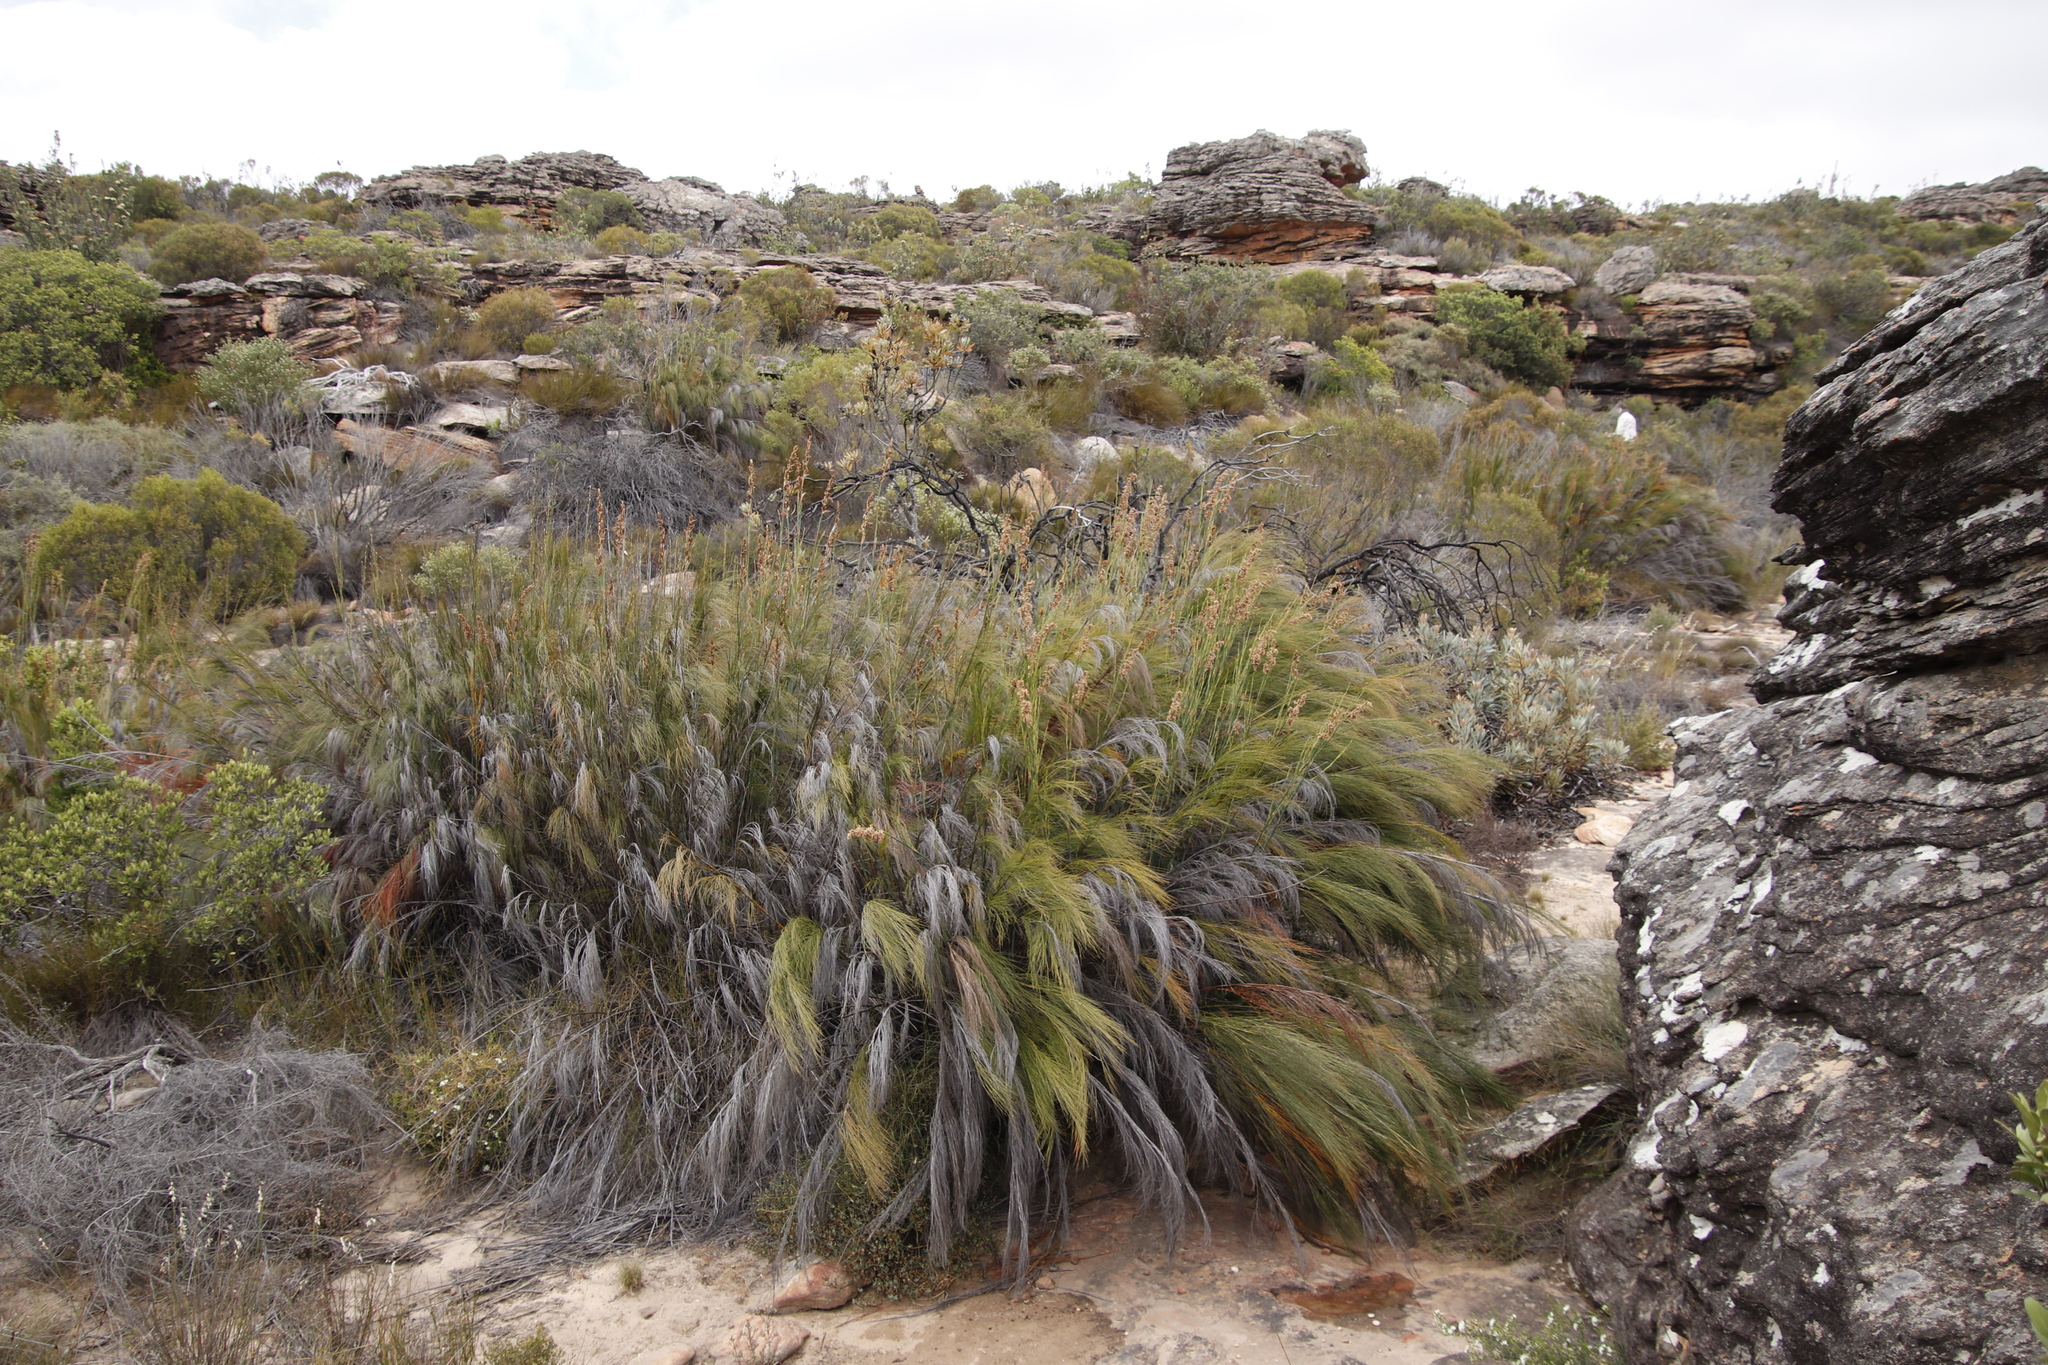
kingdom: Plantae
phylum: Tracheophyta
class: Liliopsida
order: Poales
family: Restionaceae
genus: Cannomois
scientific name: Cannomois robusta
